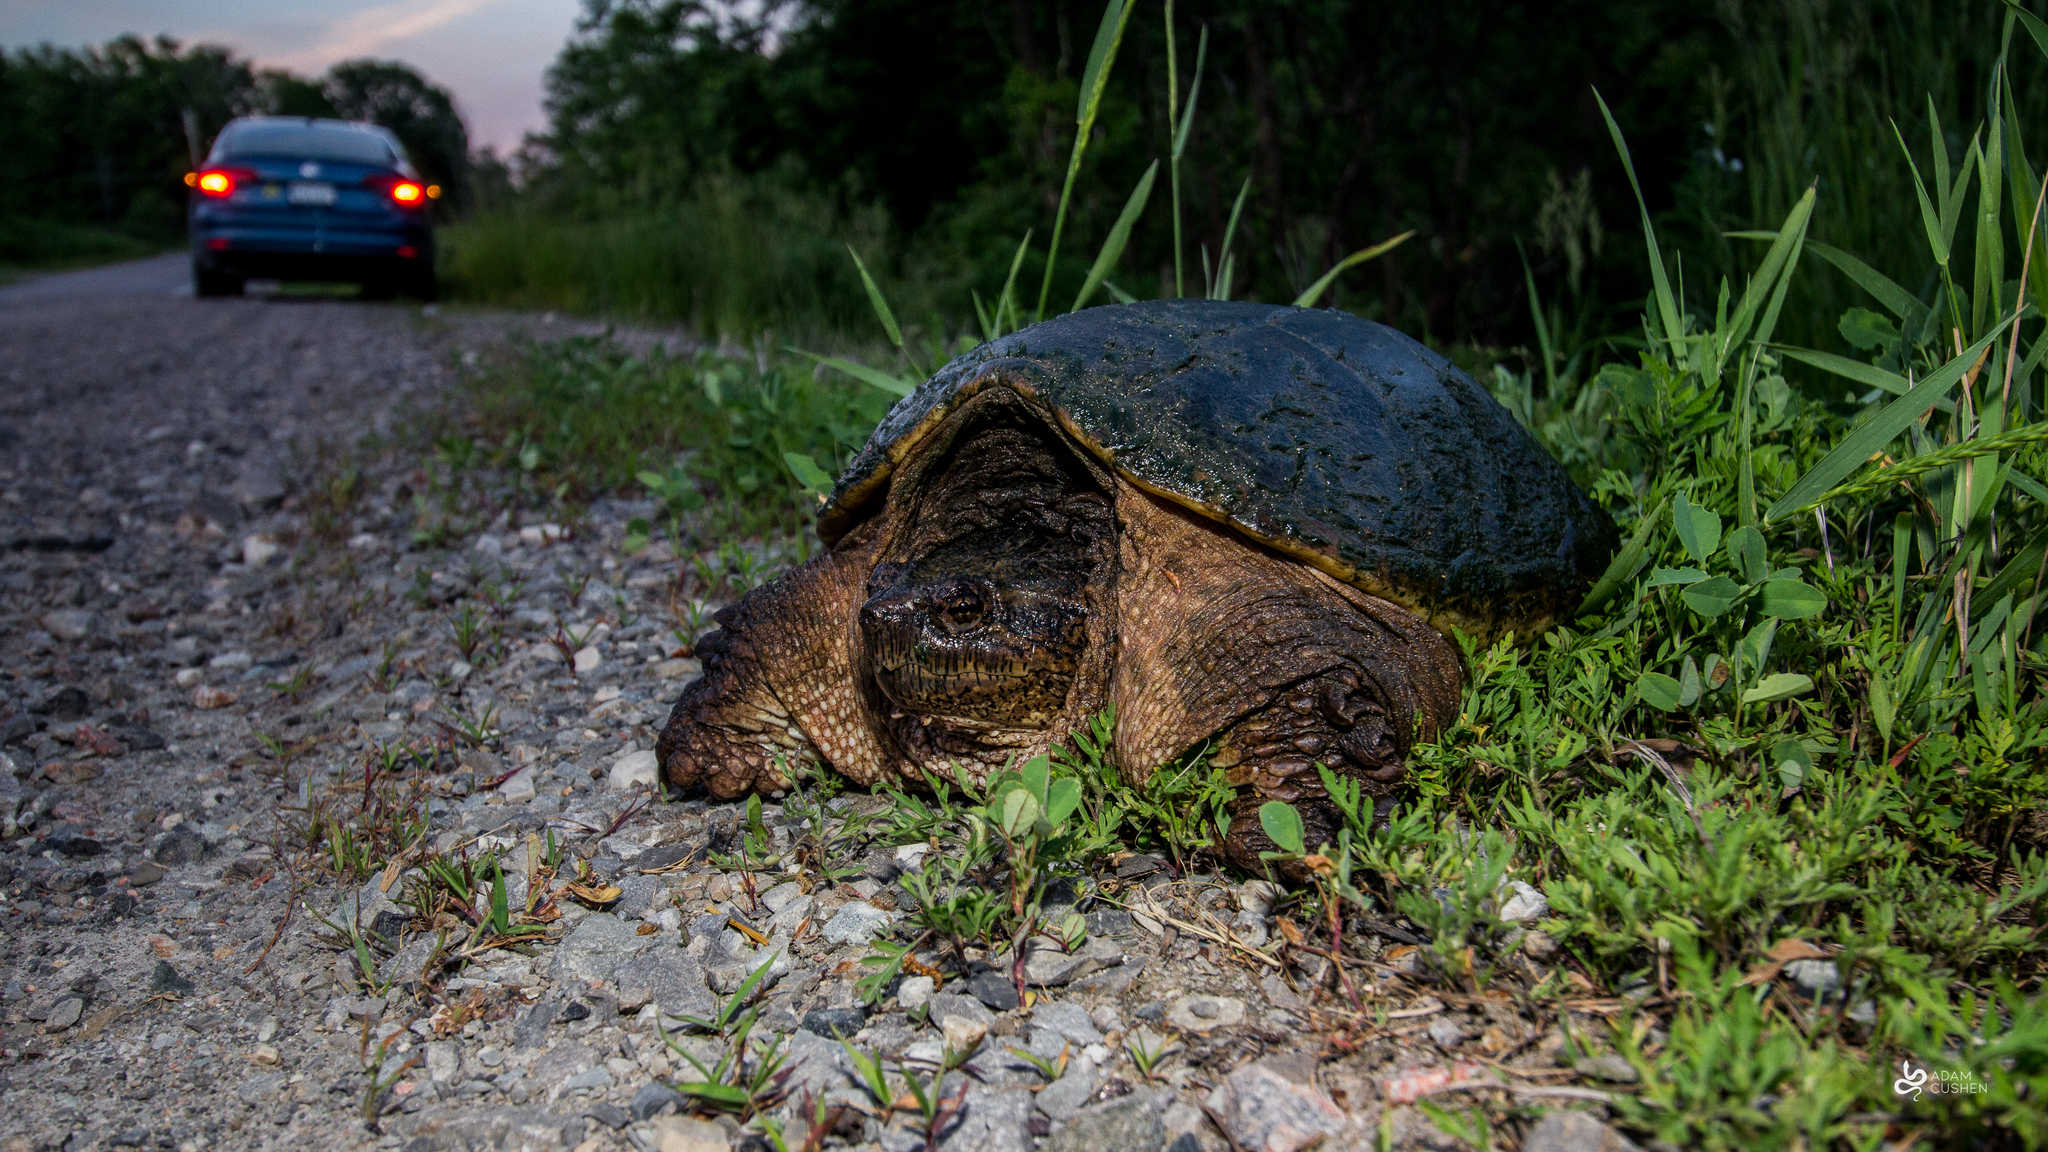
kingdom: Animalia
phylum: Chordata
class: Testudines
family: Chelydridae
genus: Chelydra
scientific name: Chelydra serpentina
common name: Common snapping turtle
